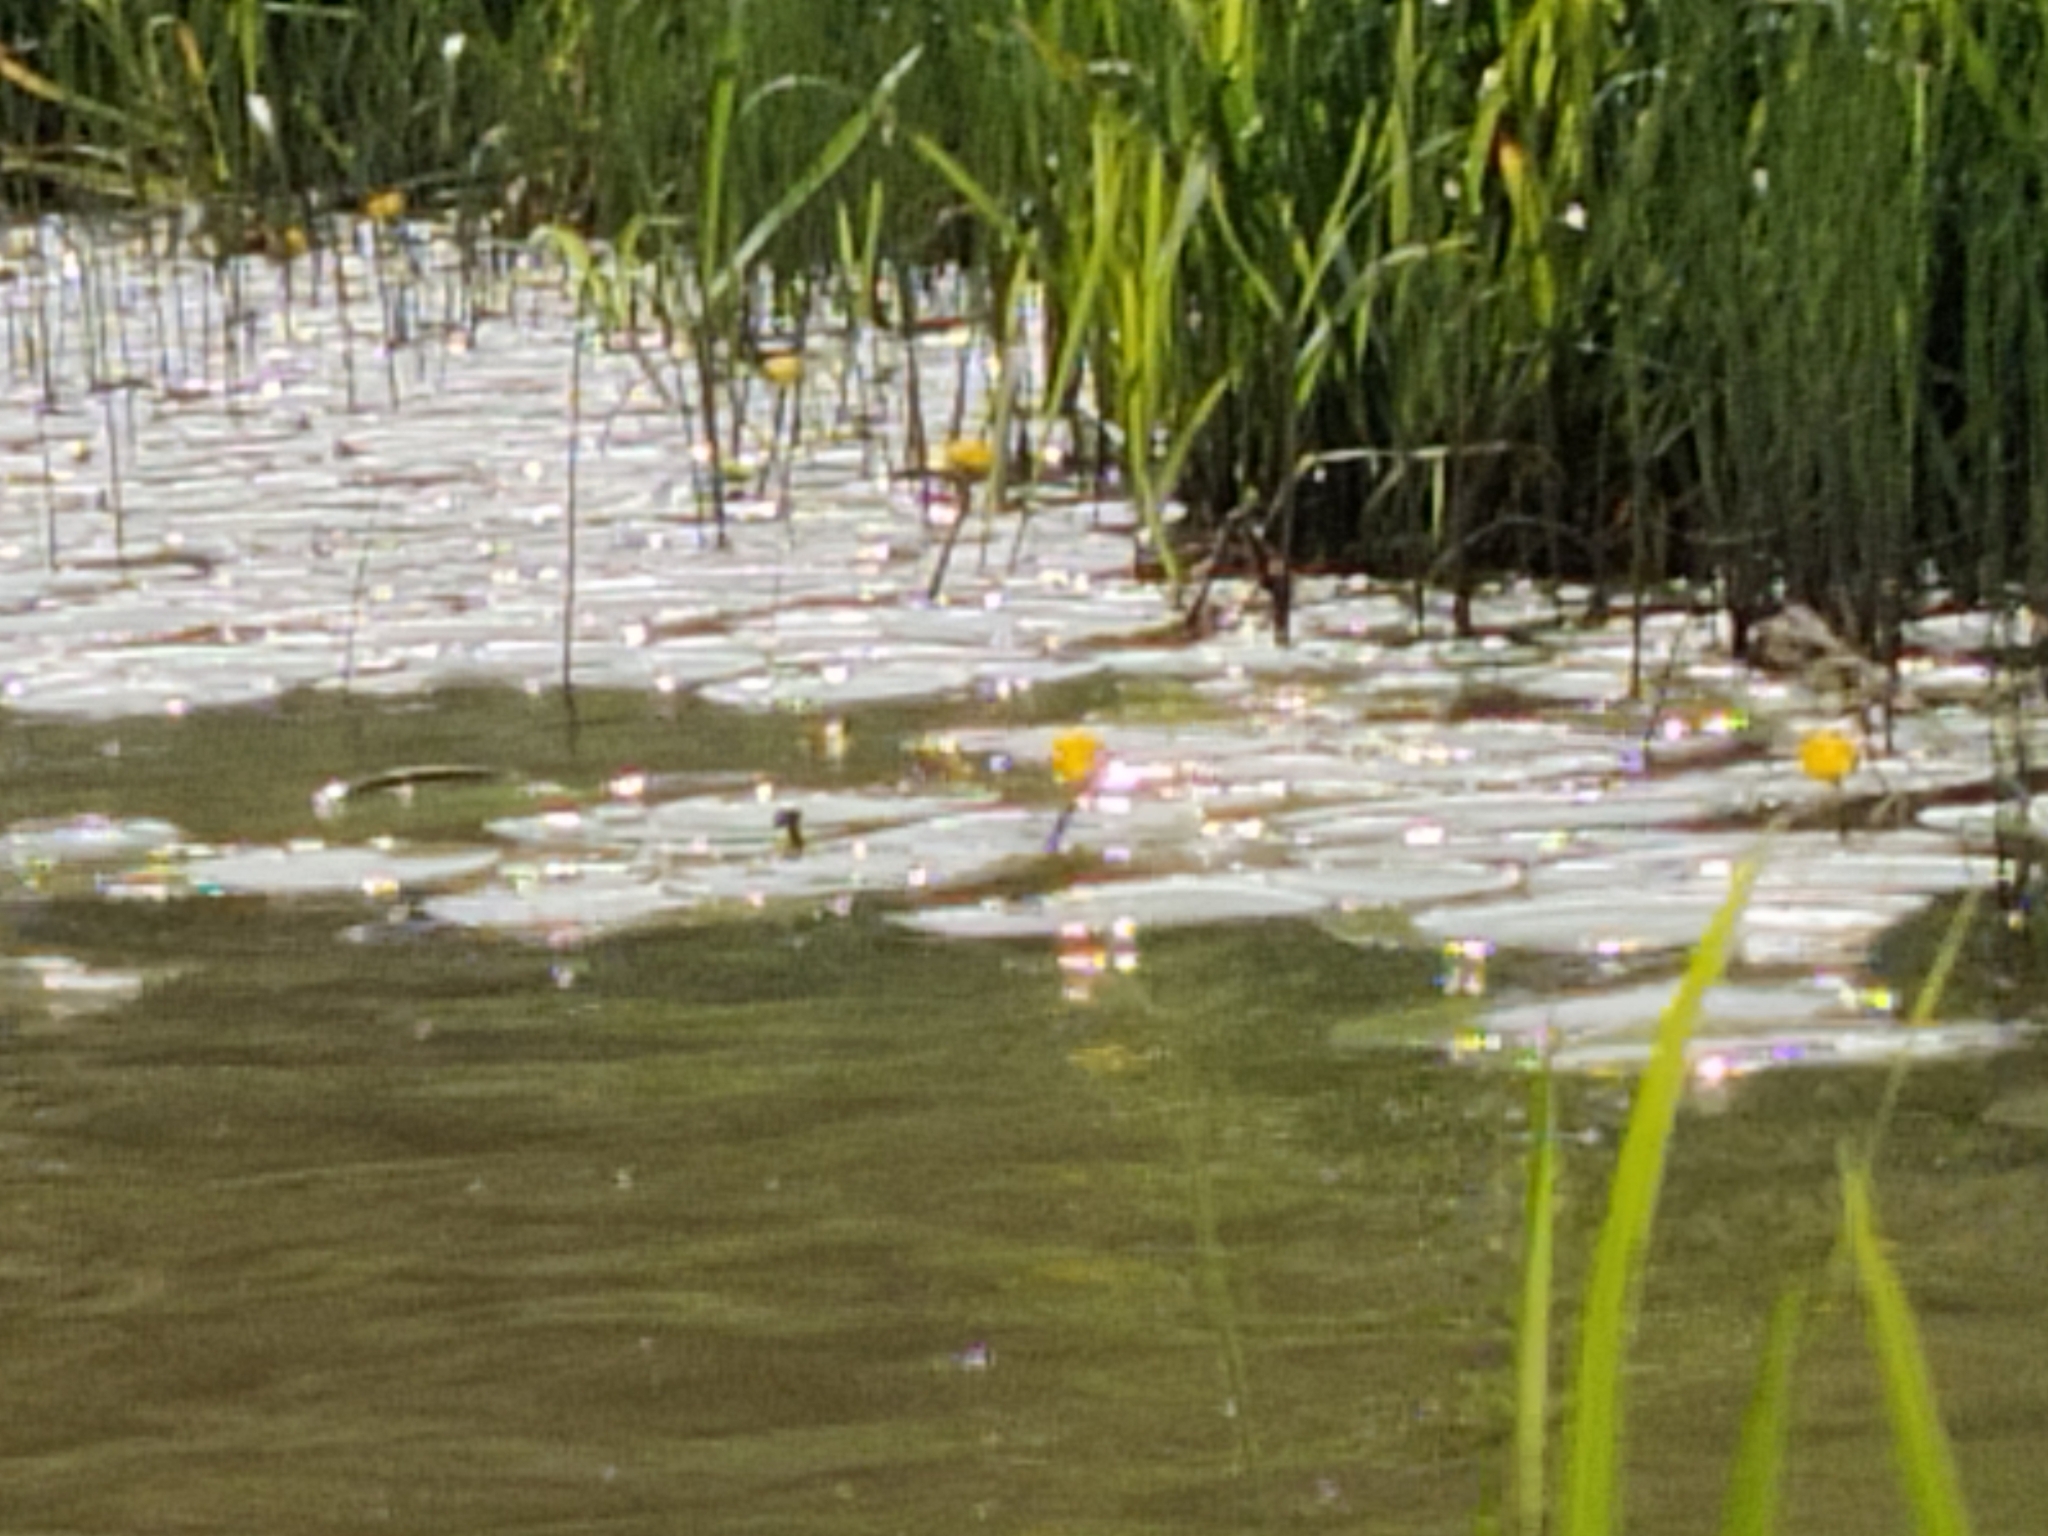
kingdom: Plantae
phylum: Tracheophyta
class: Magnoliopsida
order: Nymphaeales
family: Nymphaeaceae
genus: Nuphar
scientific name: Nuphar lutea
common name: Yellow water-lily
